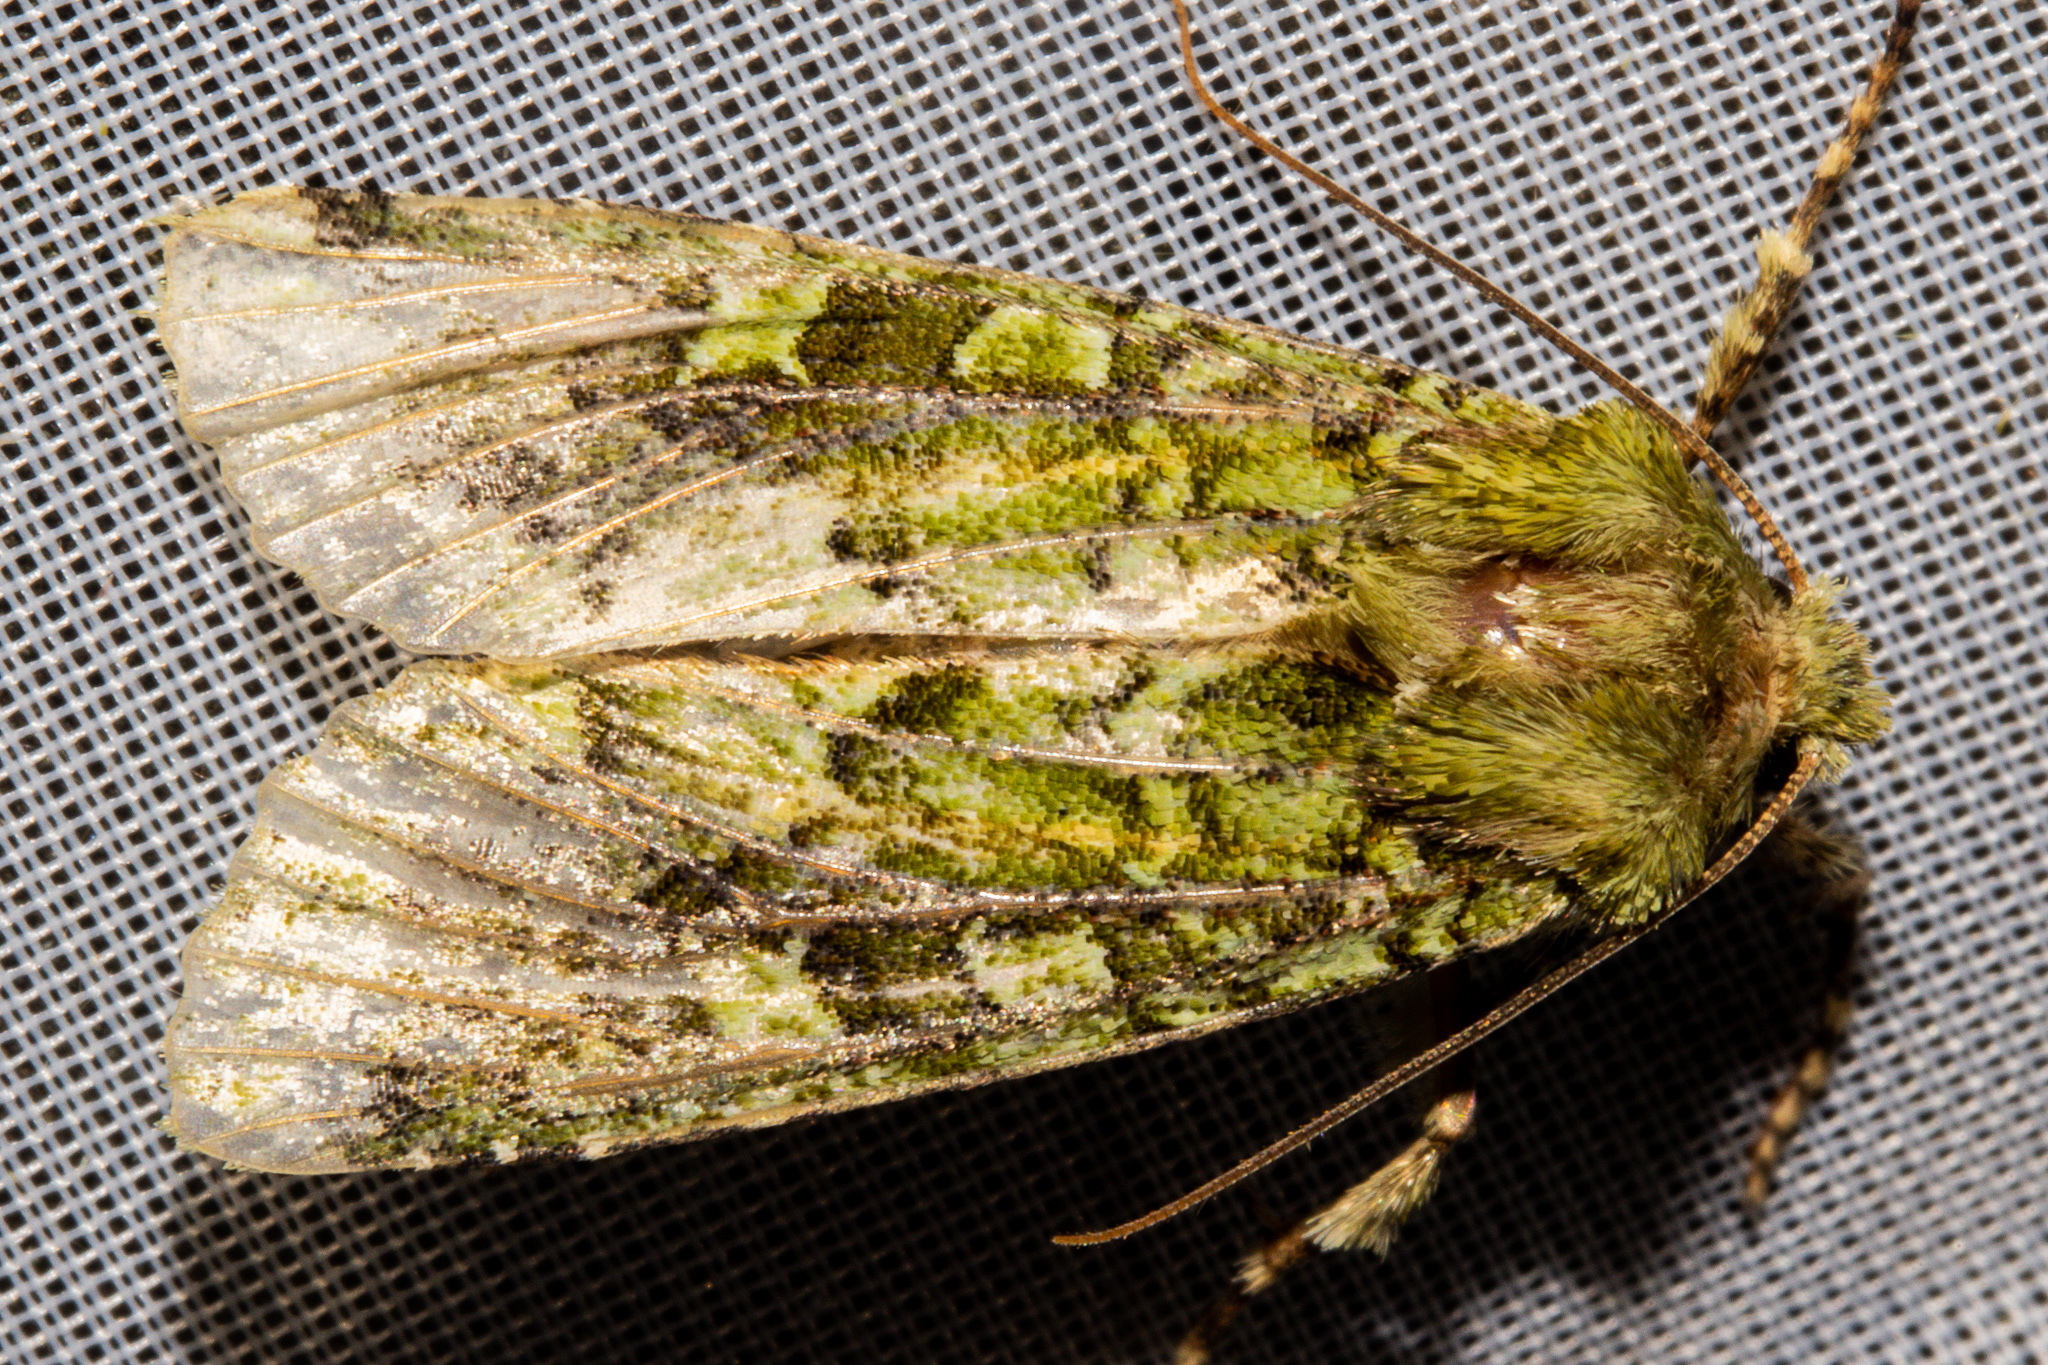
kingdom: Animalia
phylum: Arthropoda
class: Insecta
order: Lepidoptera
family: Noctuidae
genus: Feredayia
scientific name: Feredayia grammosa
